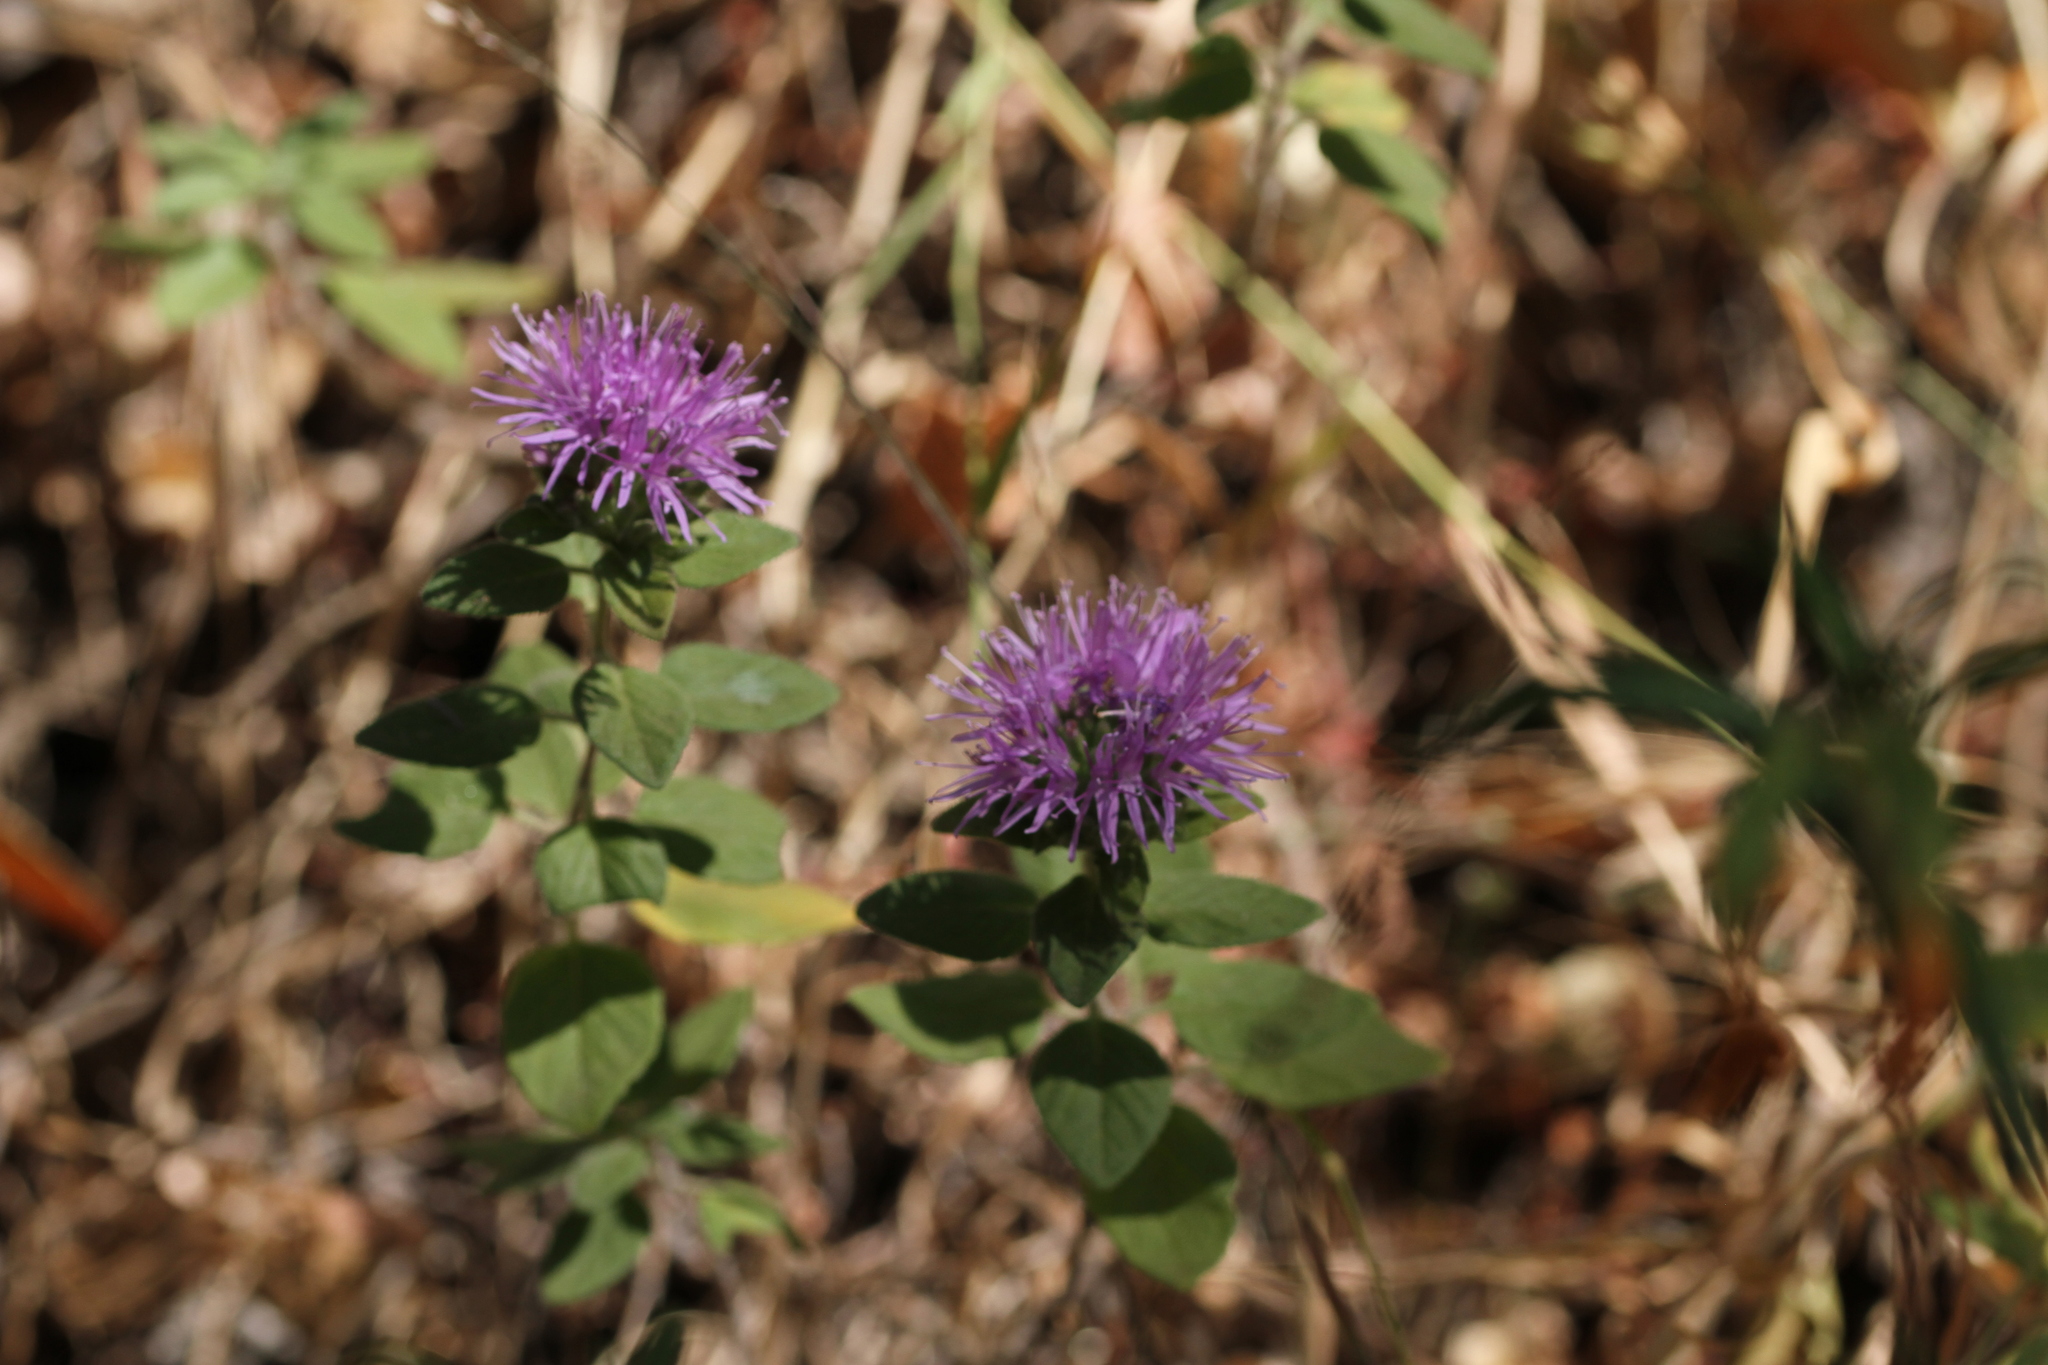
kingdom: Plantae
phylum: Tracheophyta
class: Magnoliopsida
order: Lamiales
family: Lamiaceae
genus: Monardella
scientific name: Monardella odoratissima
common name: Pacific monardella
